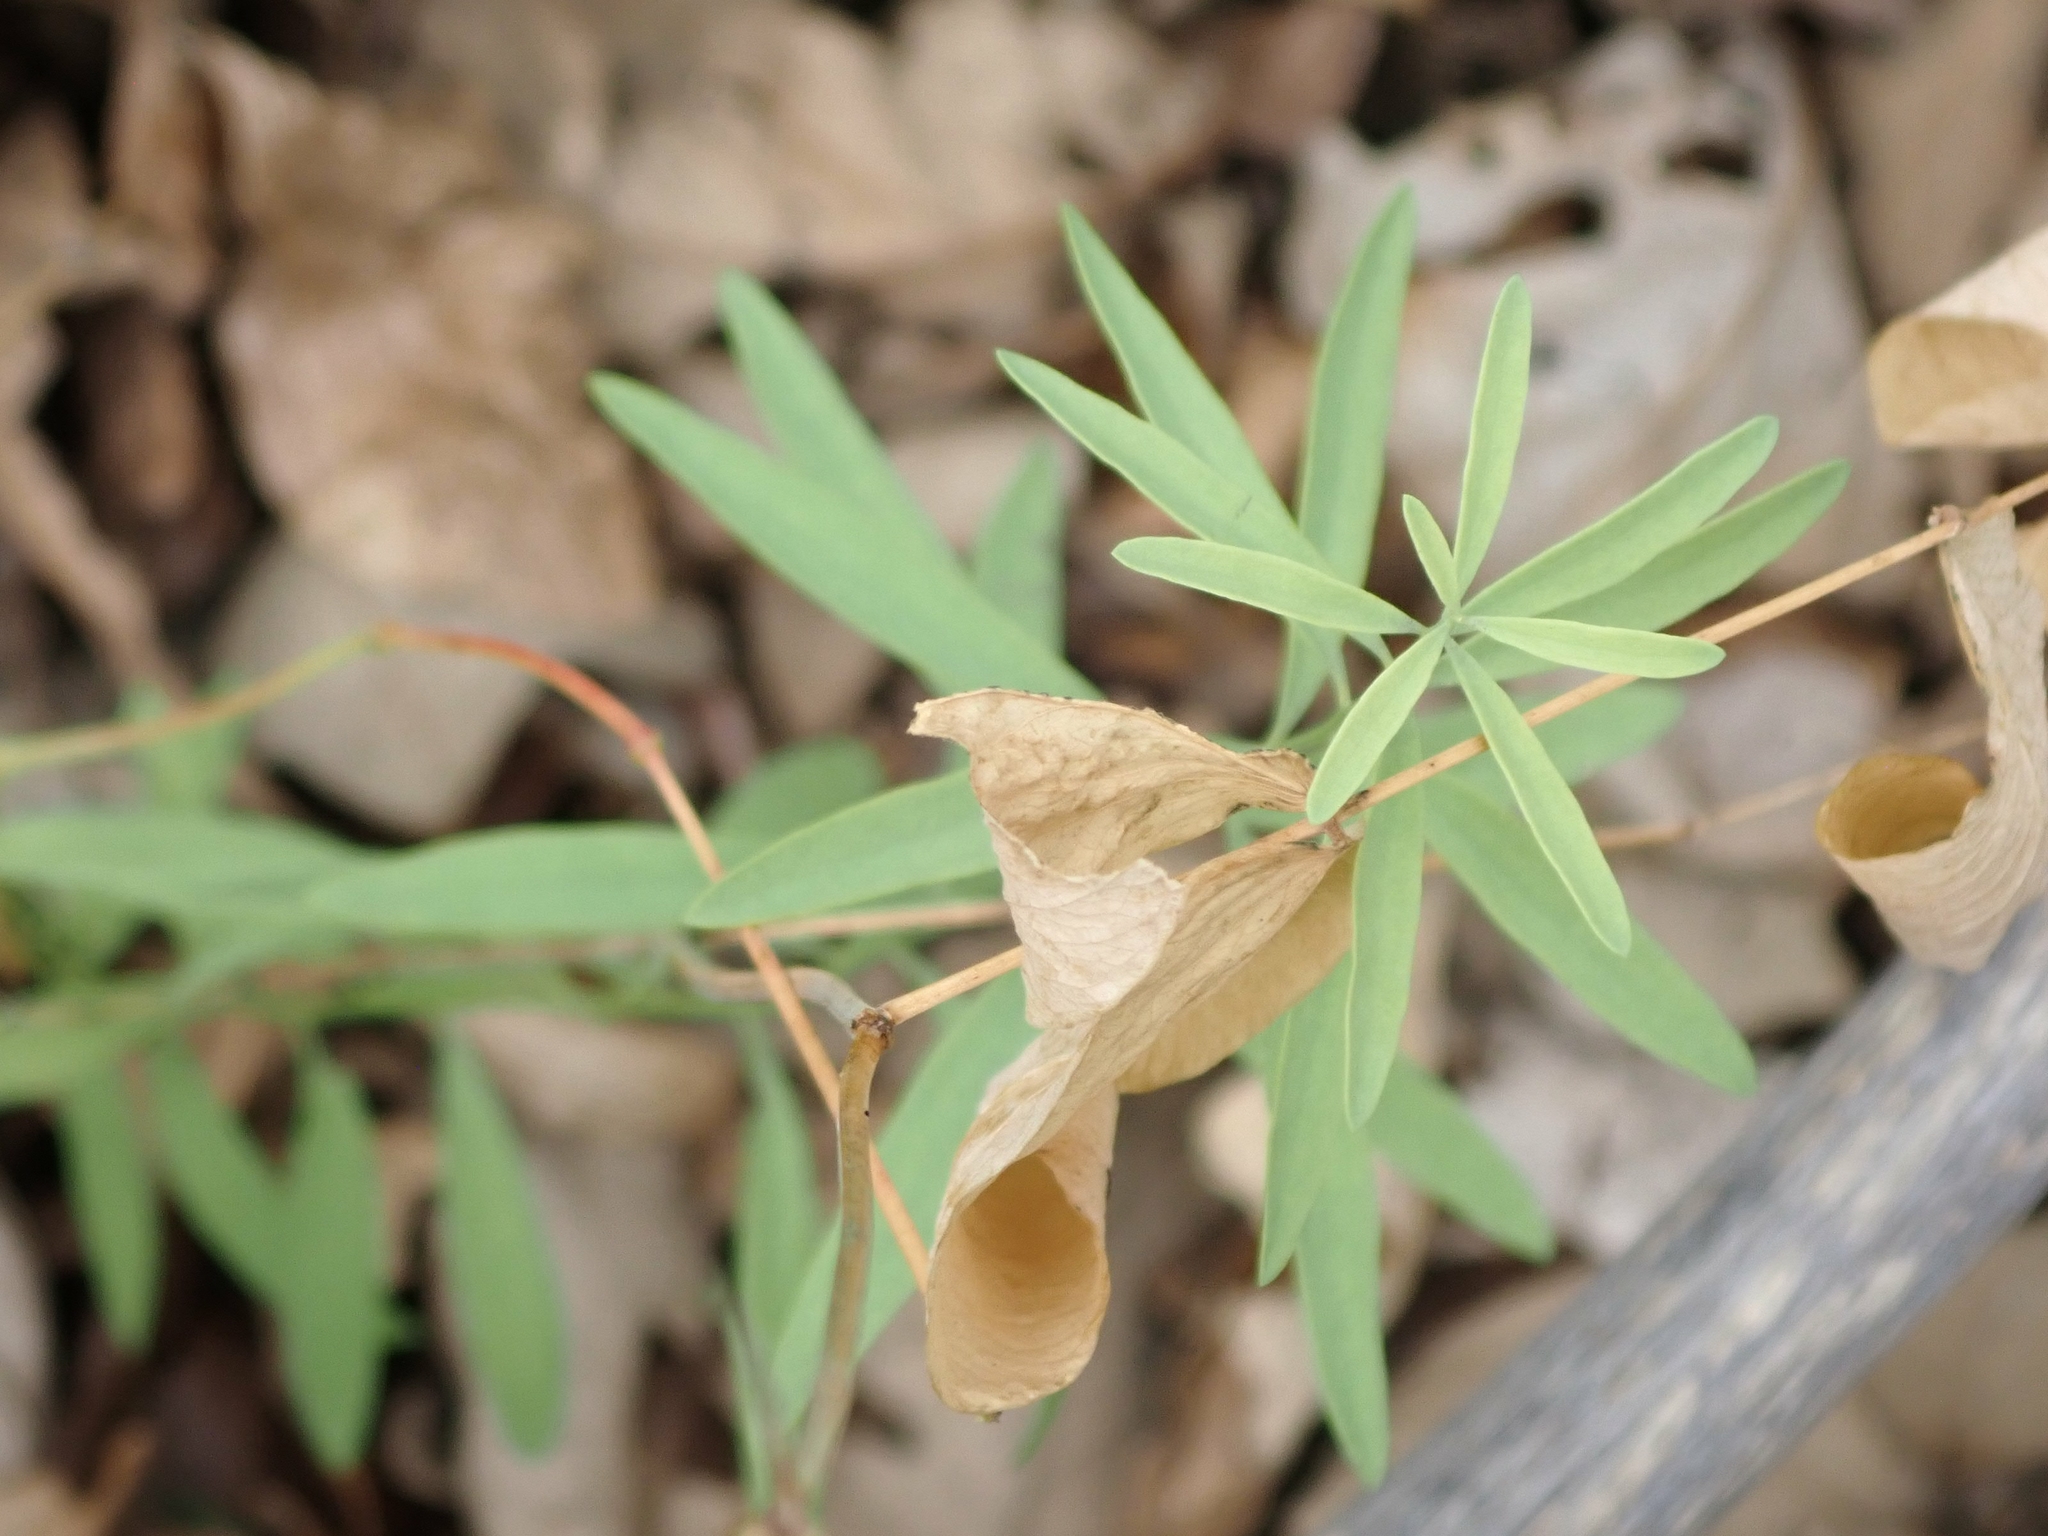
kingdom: Plantae
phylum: Tracheophyta
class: Magnoliopsida
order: Malpighiales
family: Euphorbiaceae
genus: Euphorbia
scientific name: Euphorbia virgata
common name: Leafy spurge
